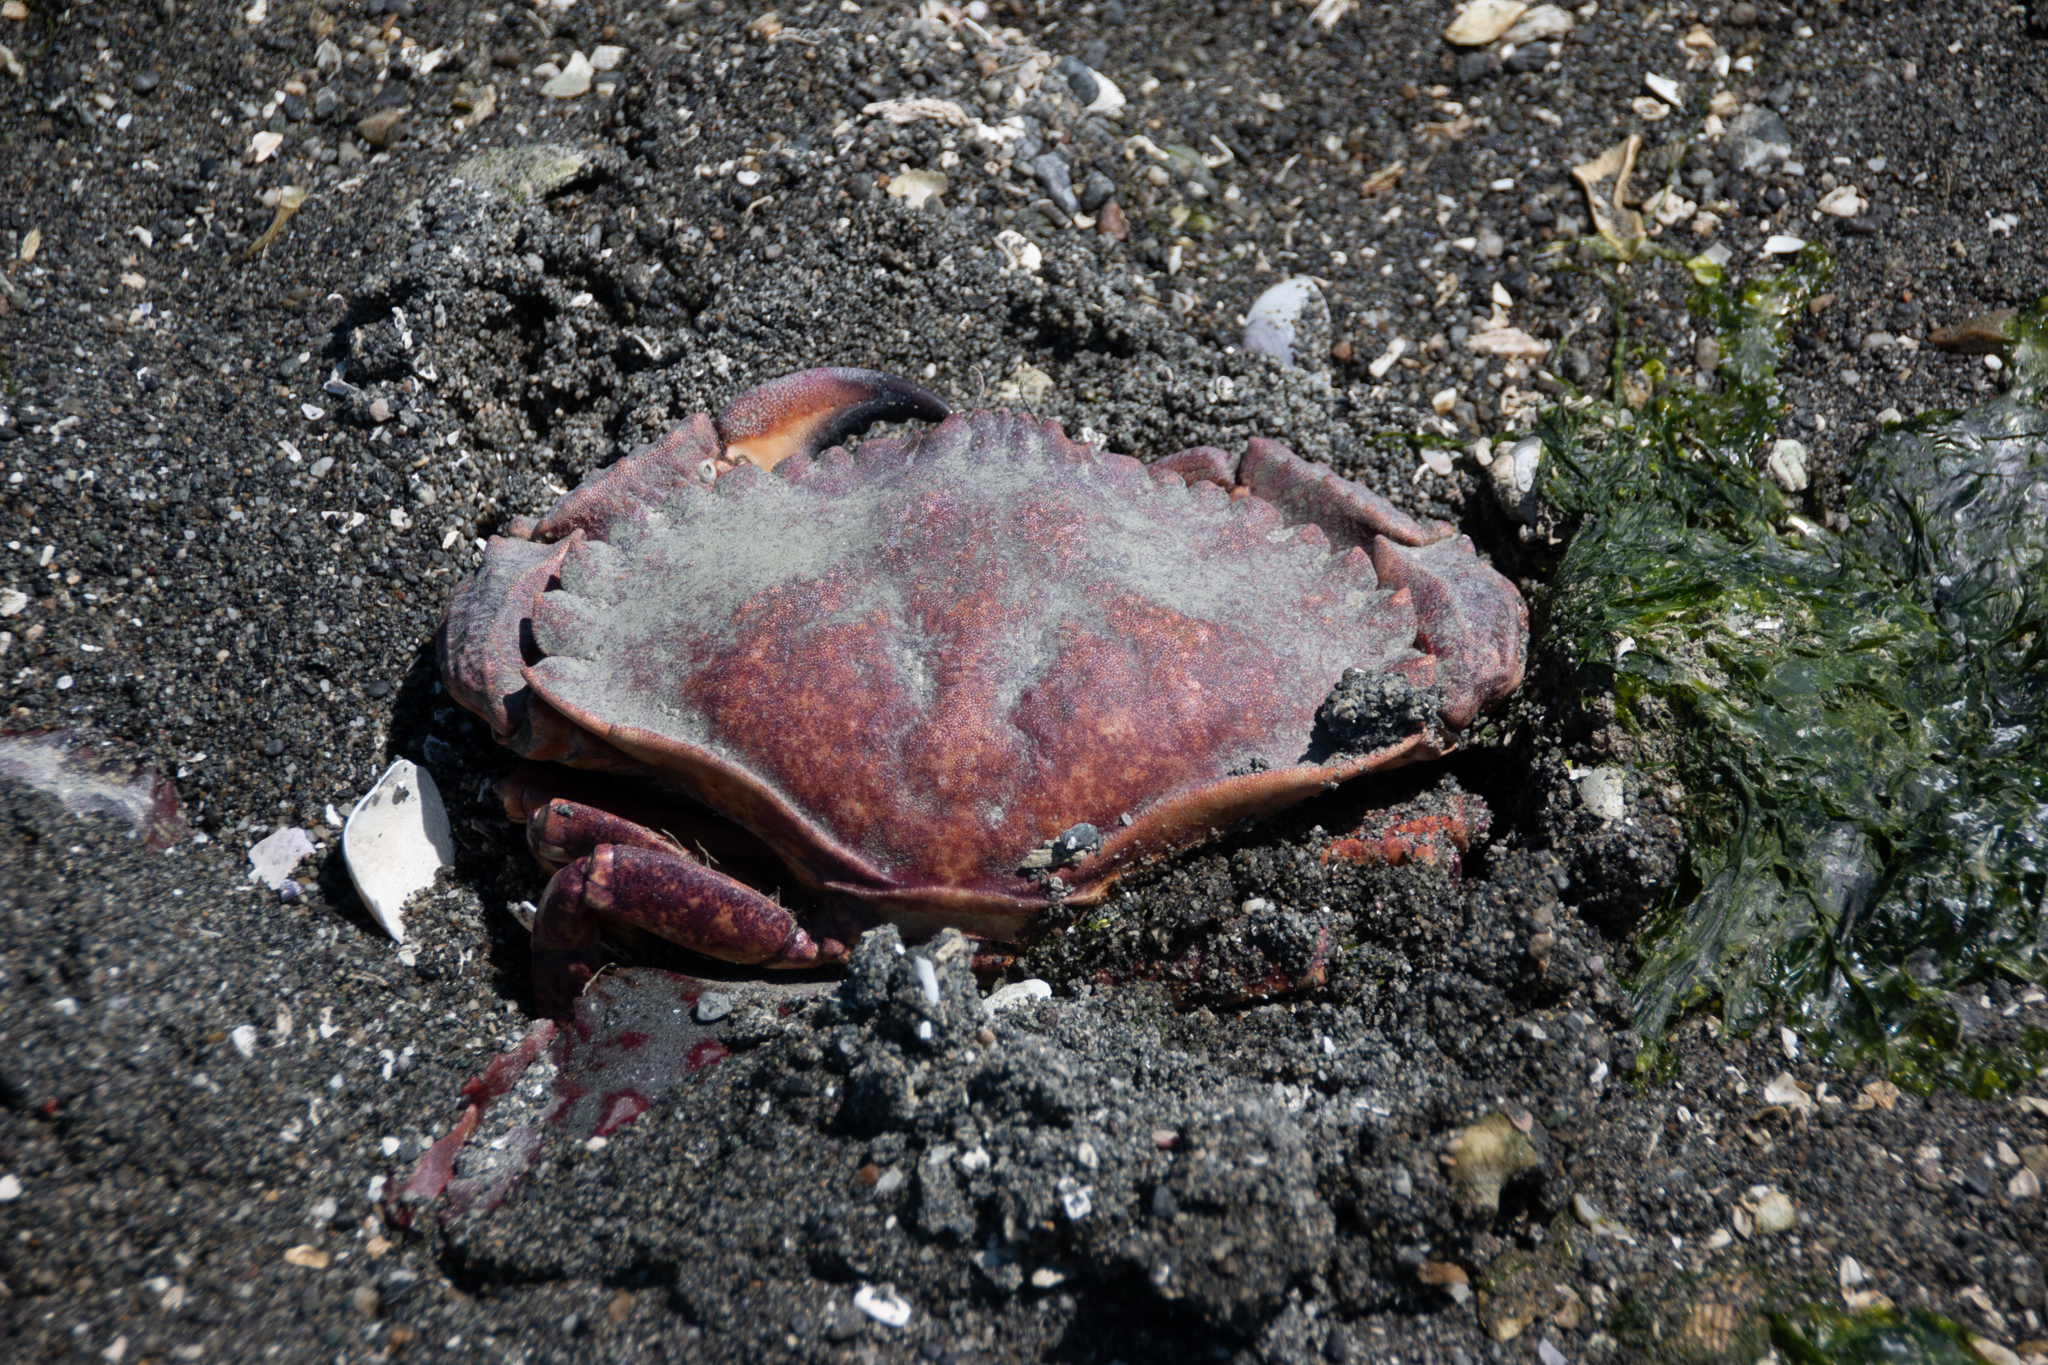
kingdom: Animalia
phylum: Arthropoda
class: Malacostraca
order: Decapoda
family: Cancridae
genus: Cancer
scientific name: Cancer productus
